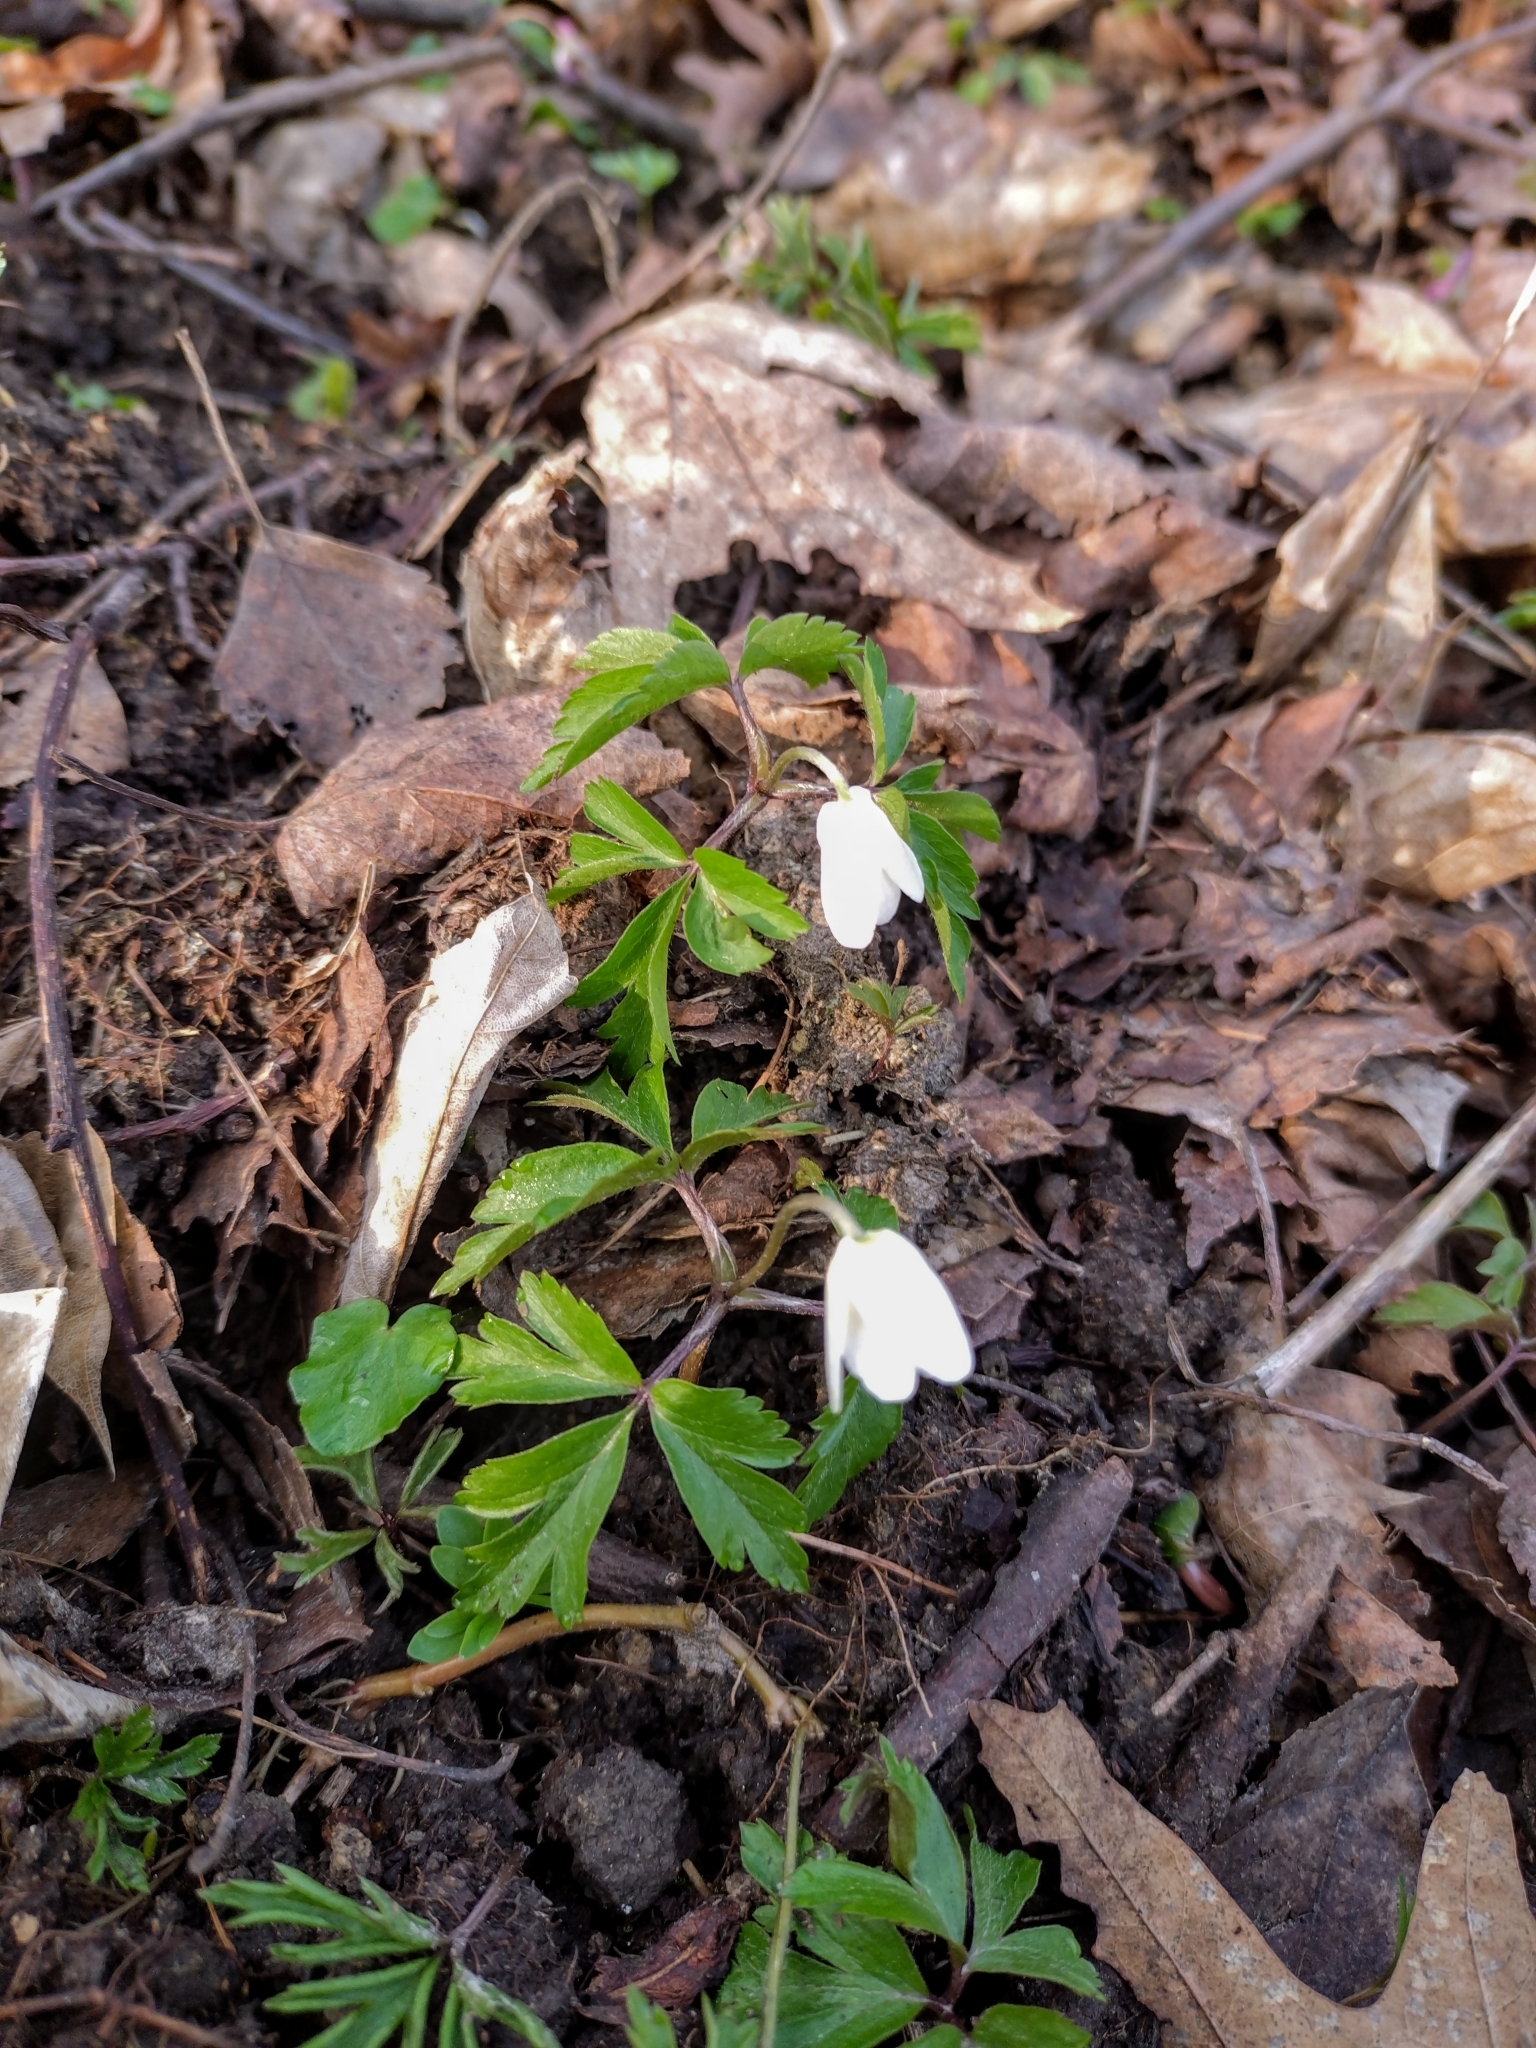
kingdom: Plantae
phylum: Tracheophyta
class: Magnoliopsida
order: Ranunculales
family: Ranunculaceae
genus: Anemone
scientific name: Anemone nemorosa
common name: Wood anemone
